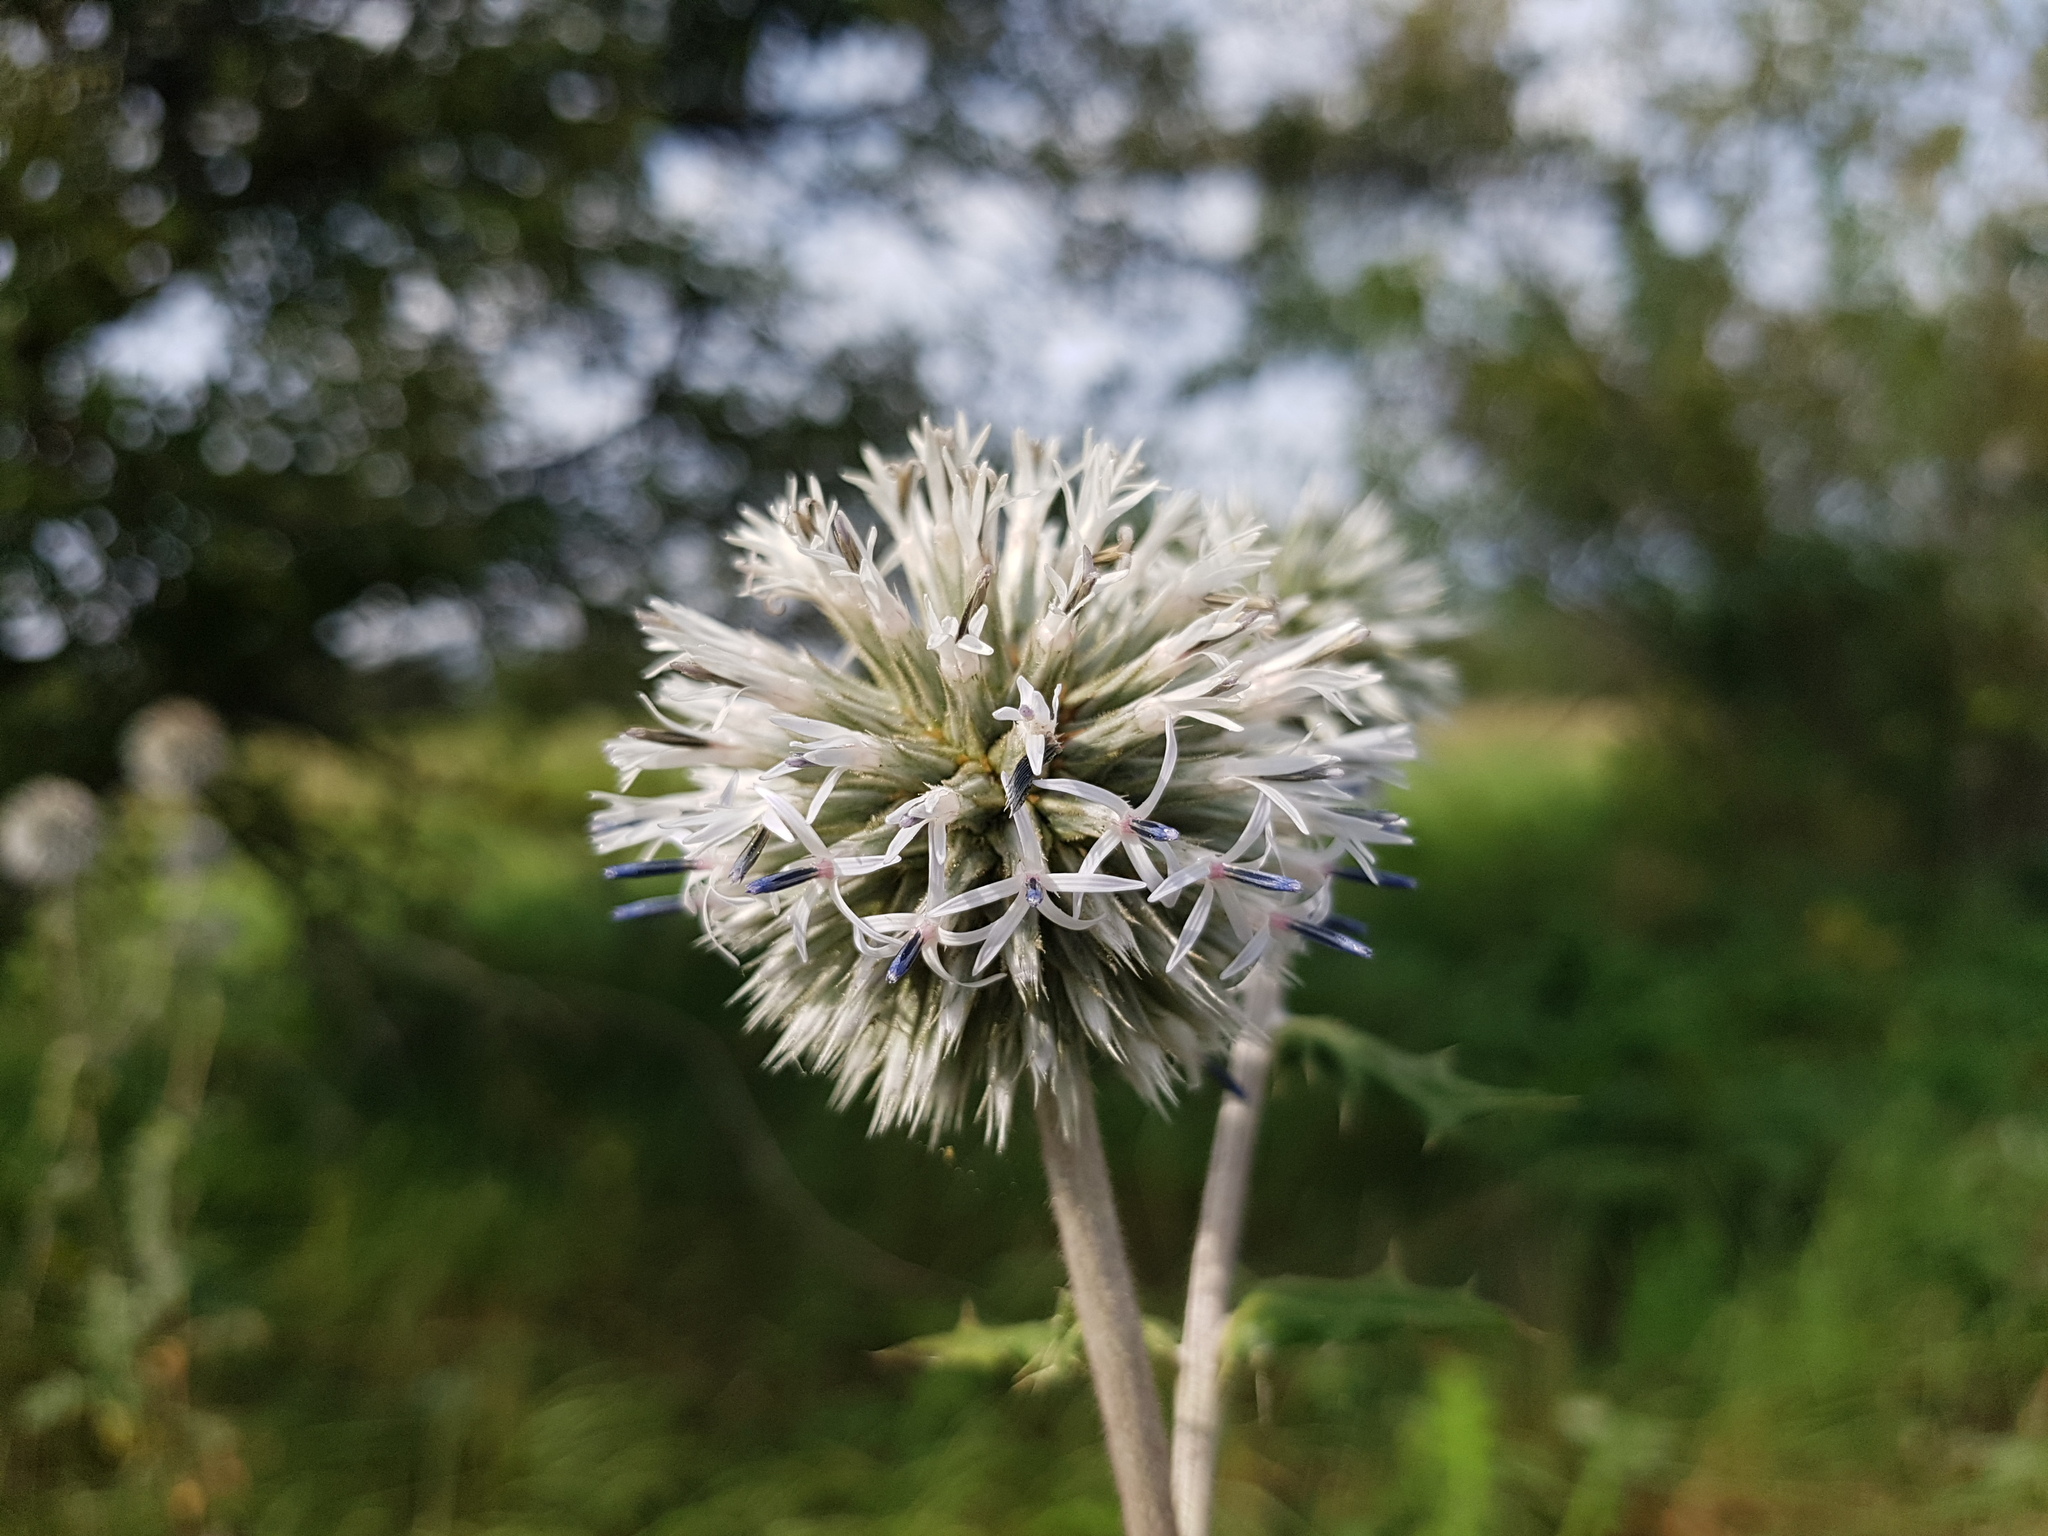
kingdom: Plantae
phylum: Tracheophyta
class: Magnoliopsida
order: Asterales
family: Asteraceae
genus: Echinops
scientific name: Echinops sphaerocephalus
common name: Glandular globe-thistle
